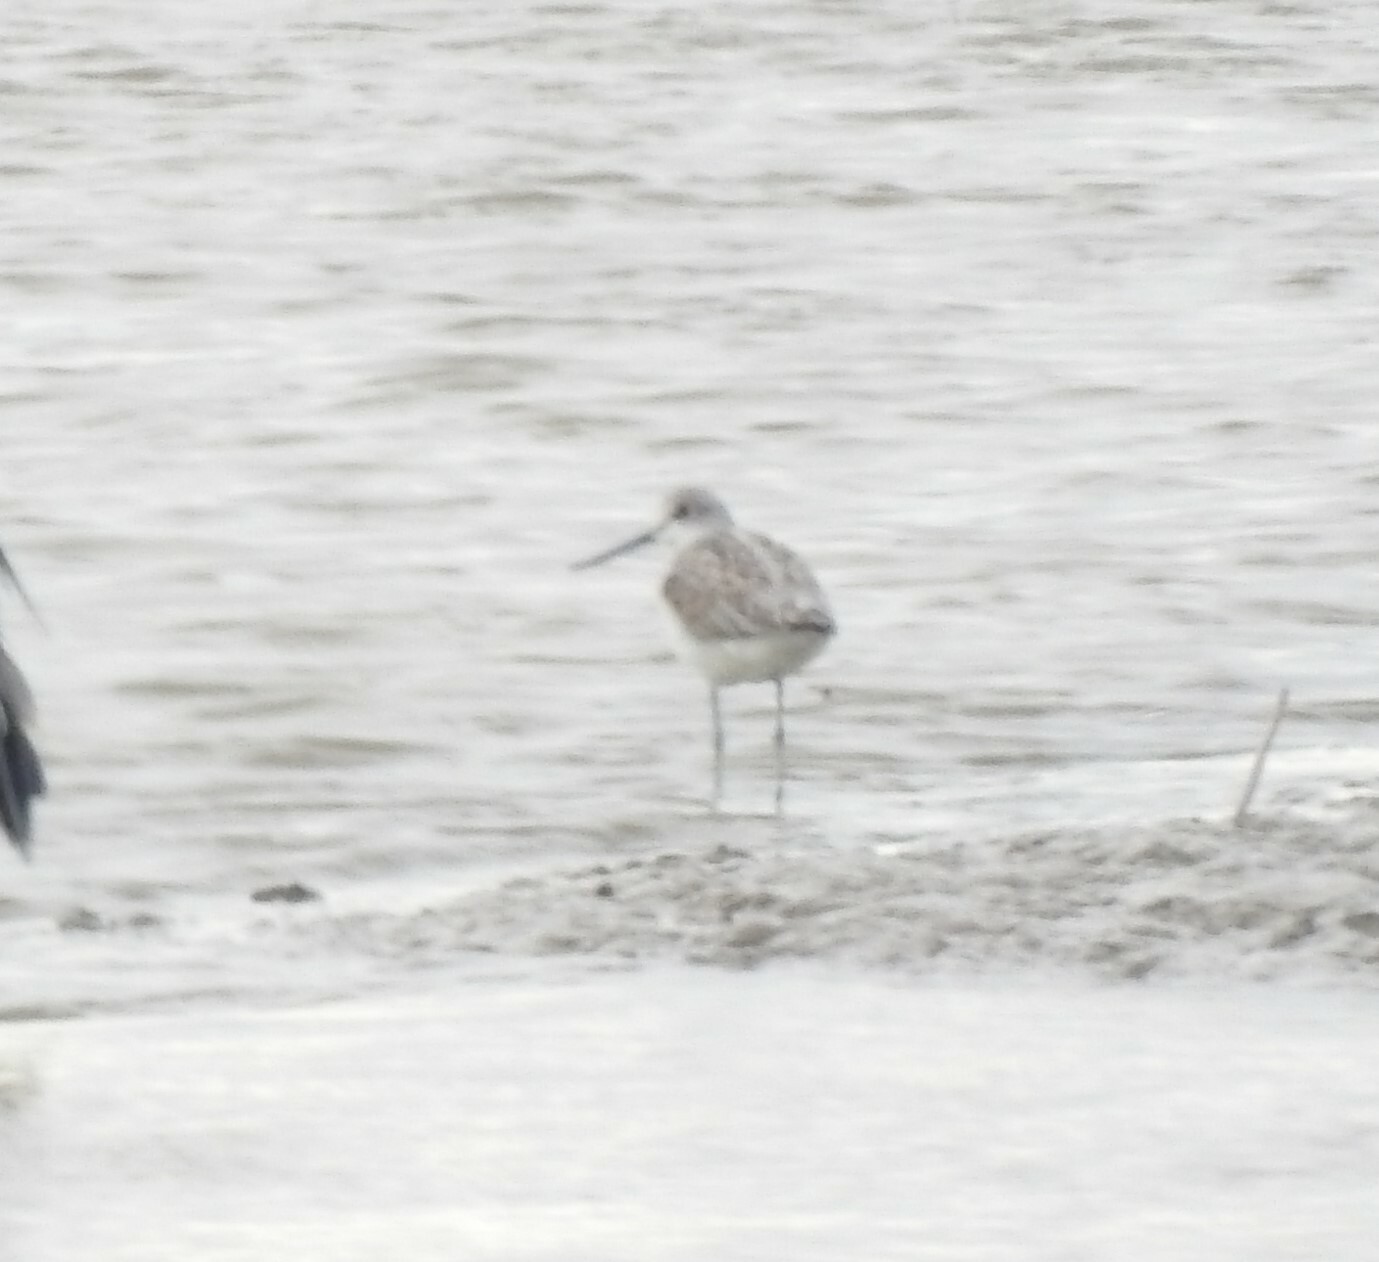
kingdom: Animalia
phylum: Chordata
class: Aves
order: Charadriiformes
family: Scolopacidae
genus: Tringa
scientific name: Tringa nebularia
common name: Common greenshank
